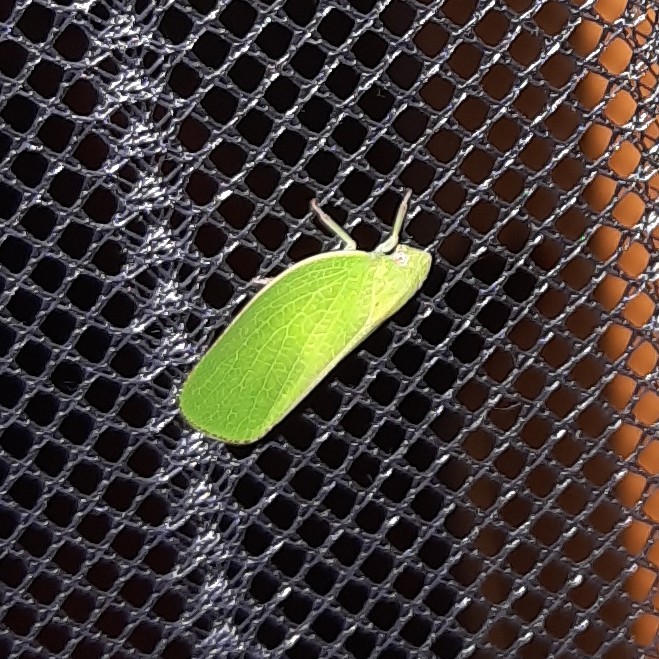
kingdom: Animalia
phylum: Arthropoda
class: Insecta
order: Hemiptera
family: Acanaloniidae
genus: Acanalonia
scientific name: Acanalonia conica
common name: Green cone-headed planthopper
